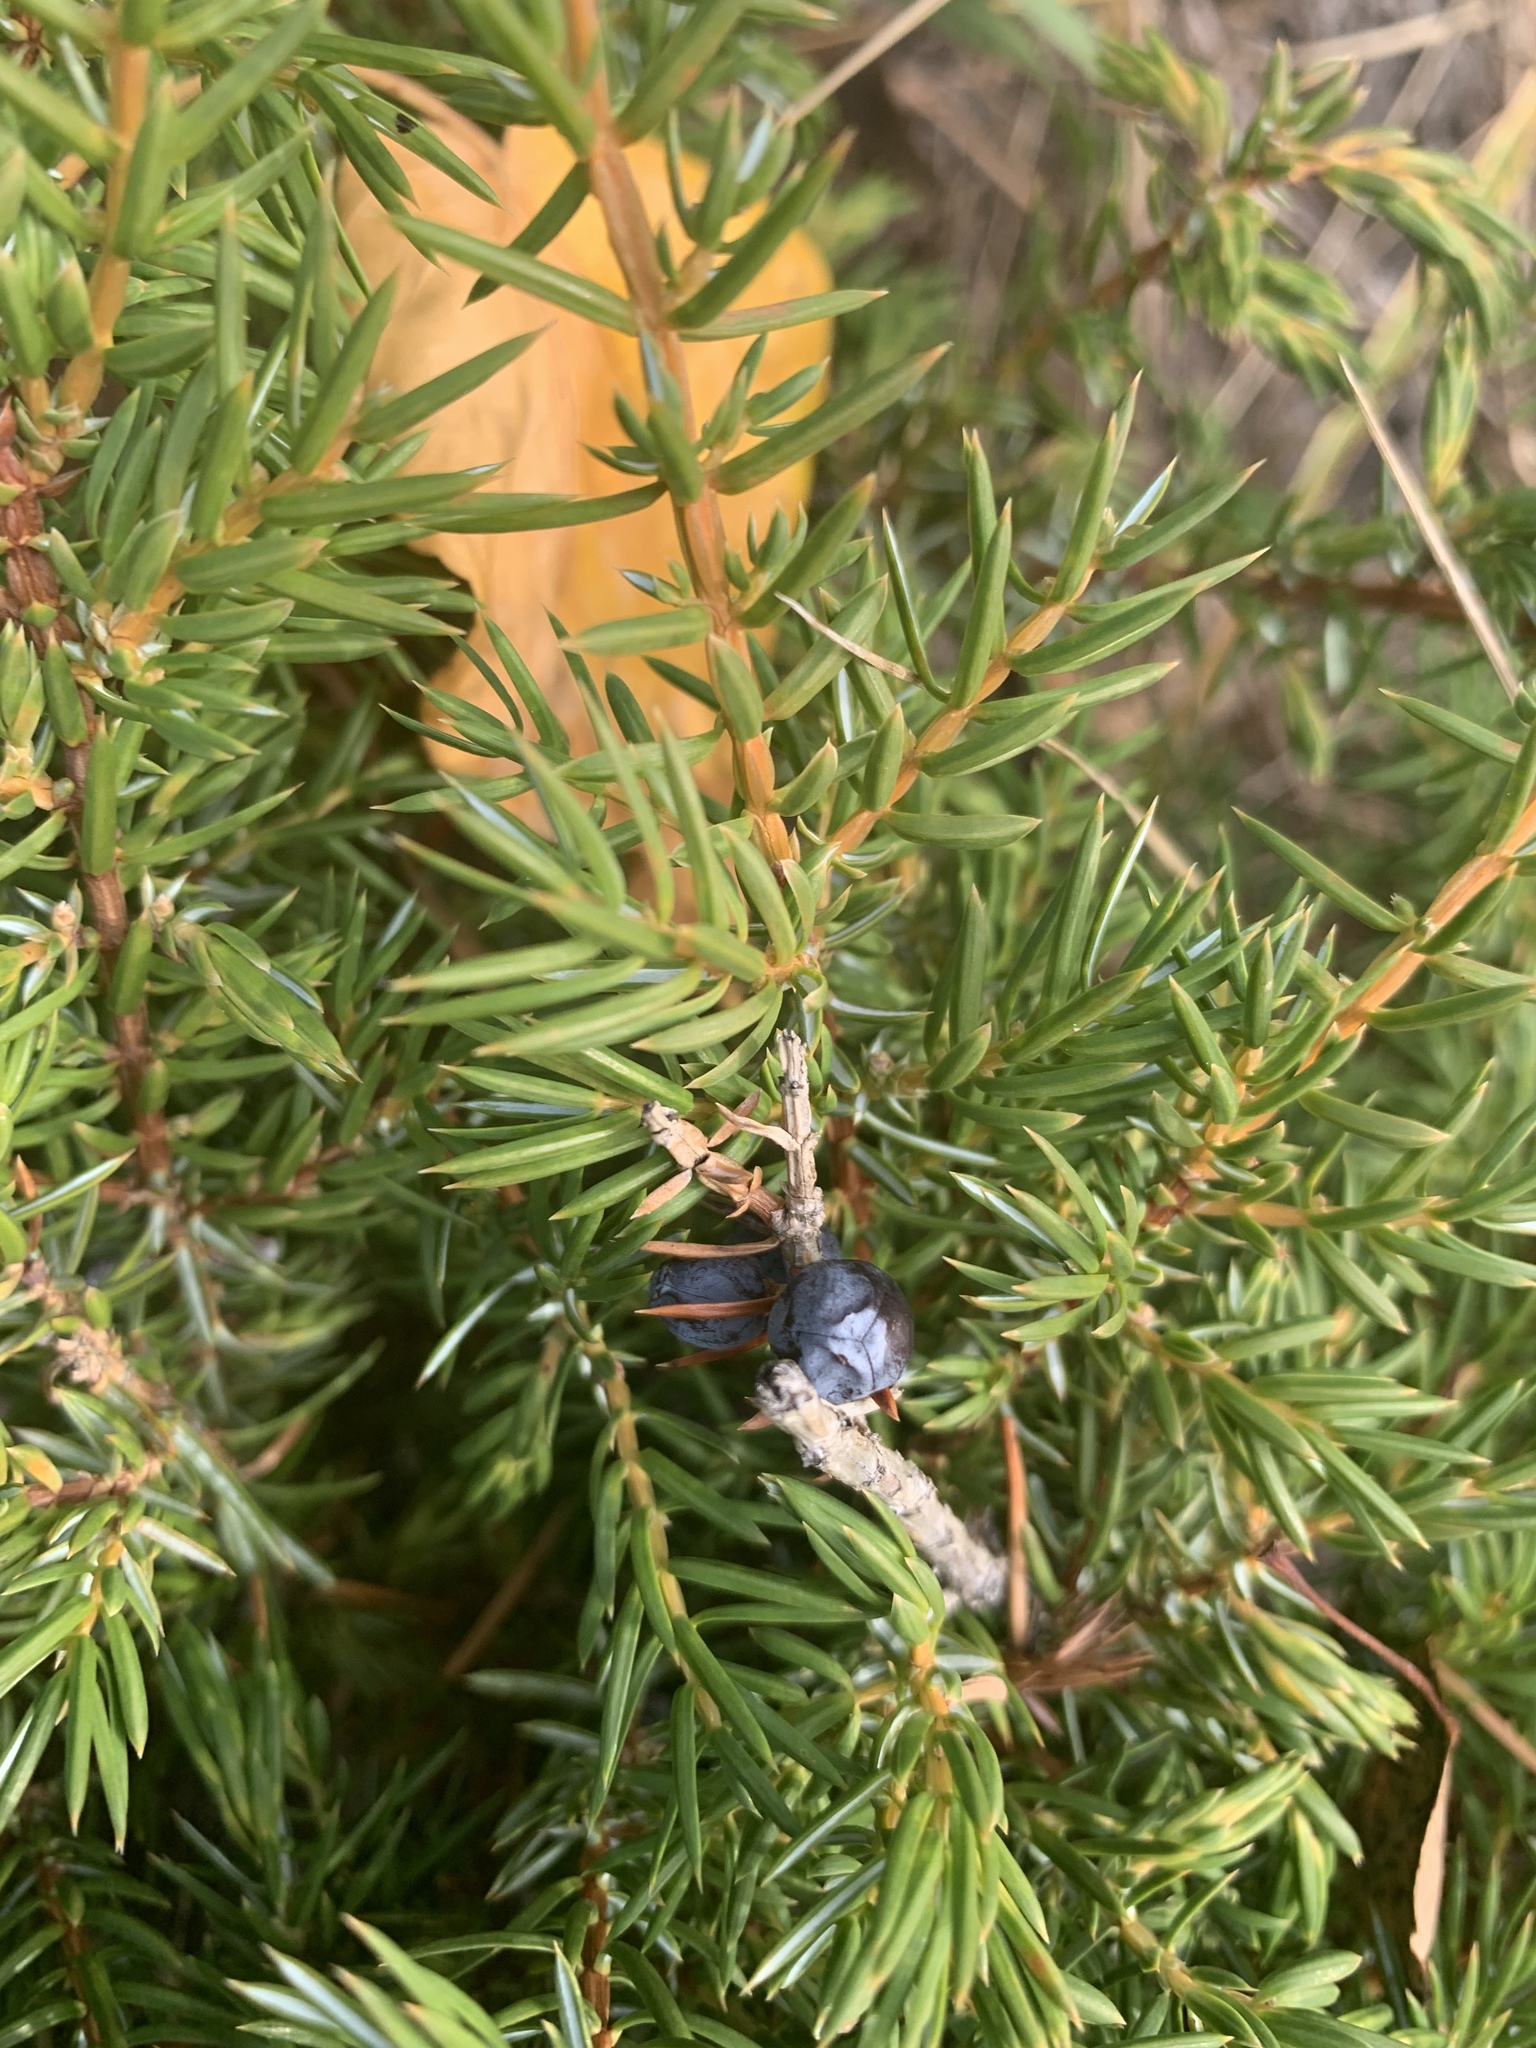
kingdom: Plantae
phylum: Tracheophyta
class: Pinopsida
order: Pinales
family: Cupressaceae
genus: Juniperus
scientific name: Juniperus communis
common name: Common juniper
